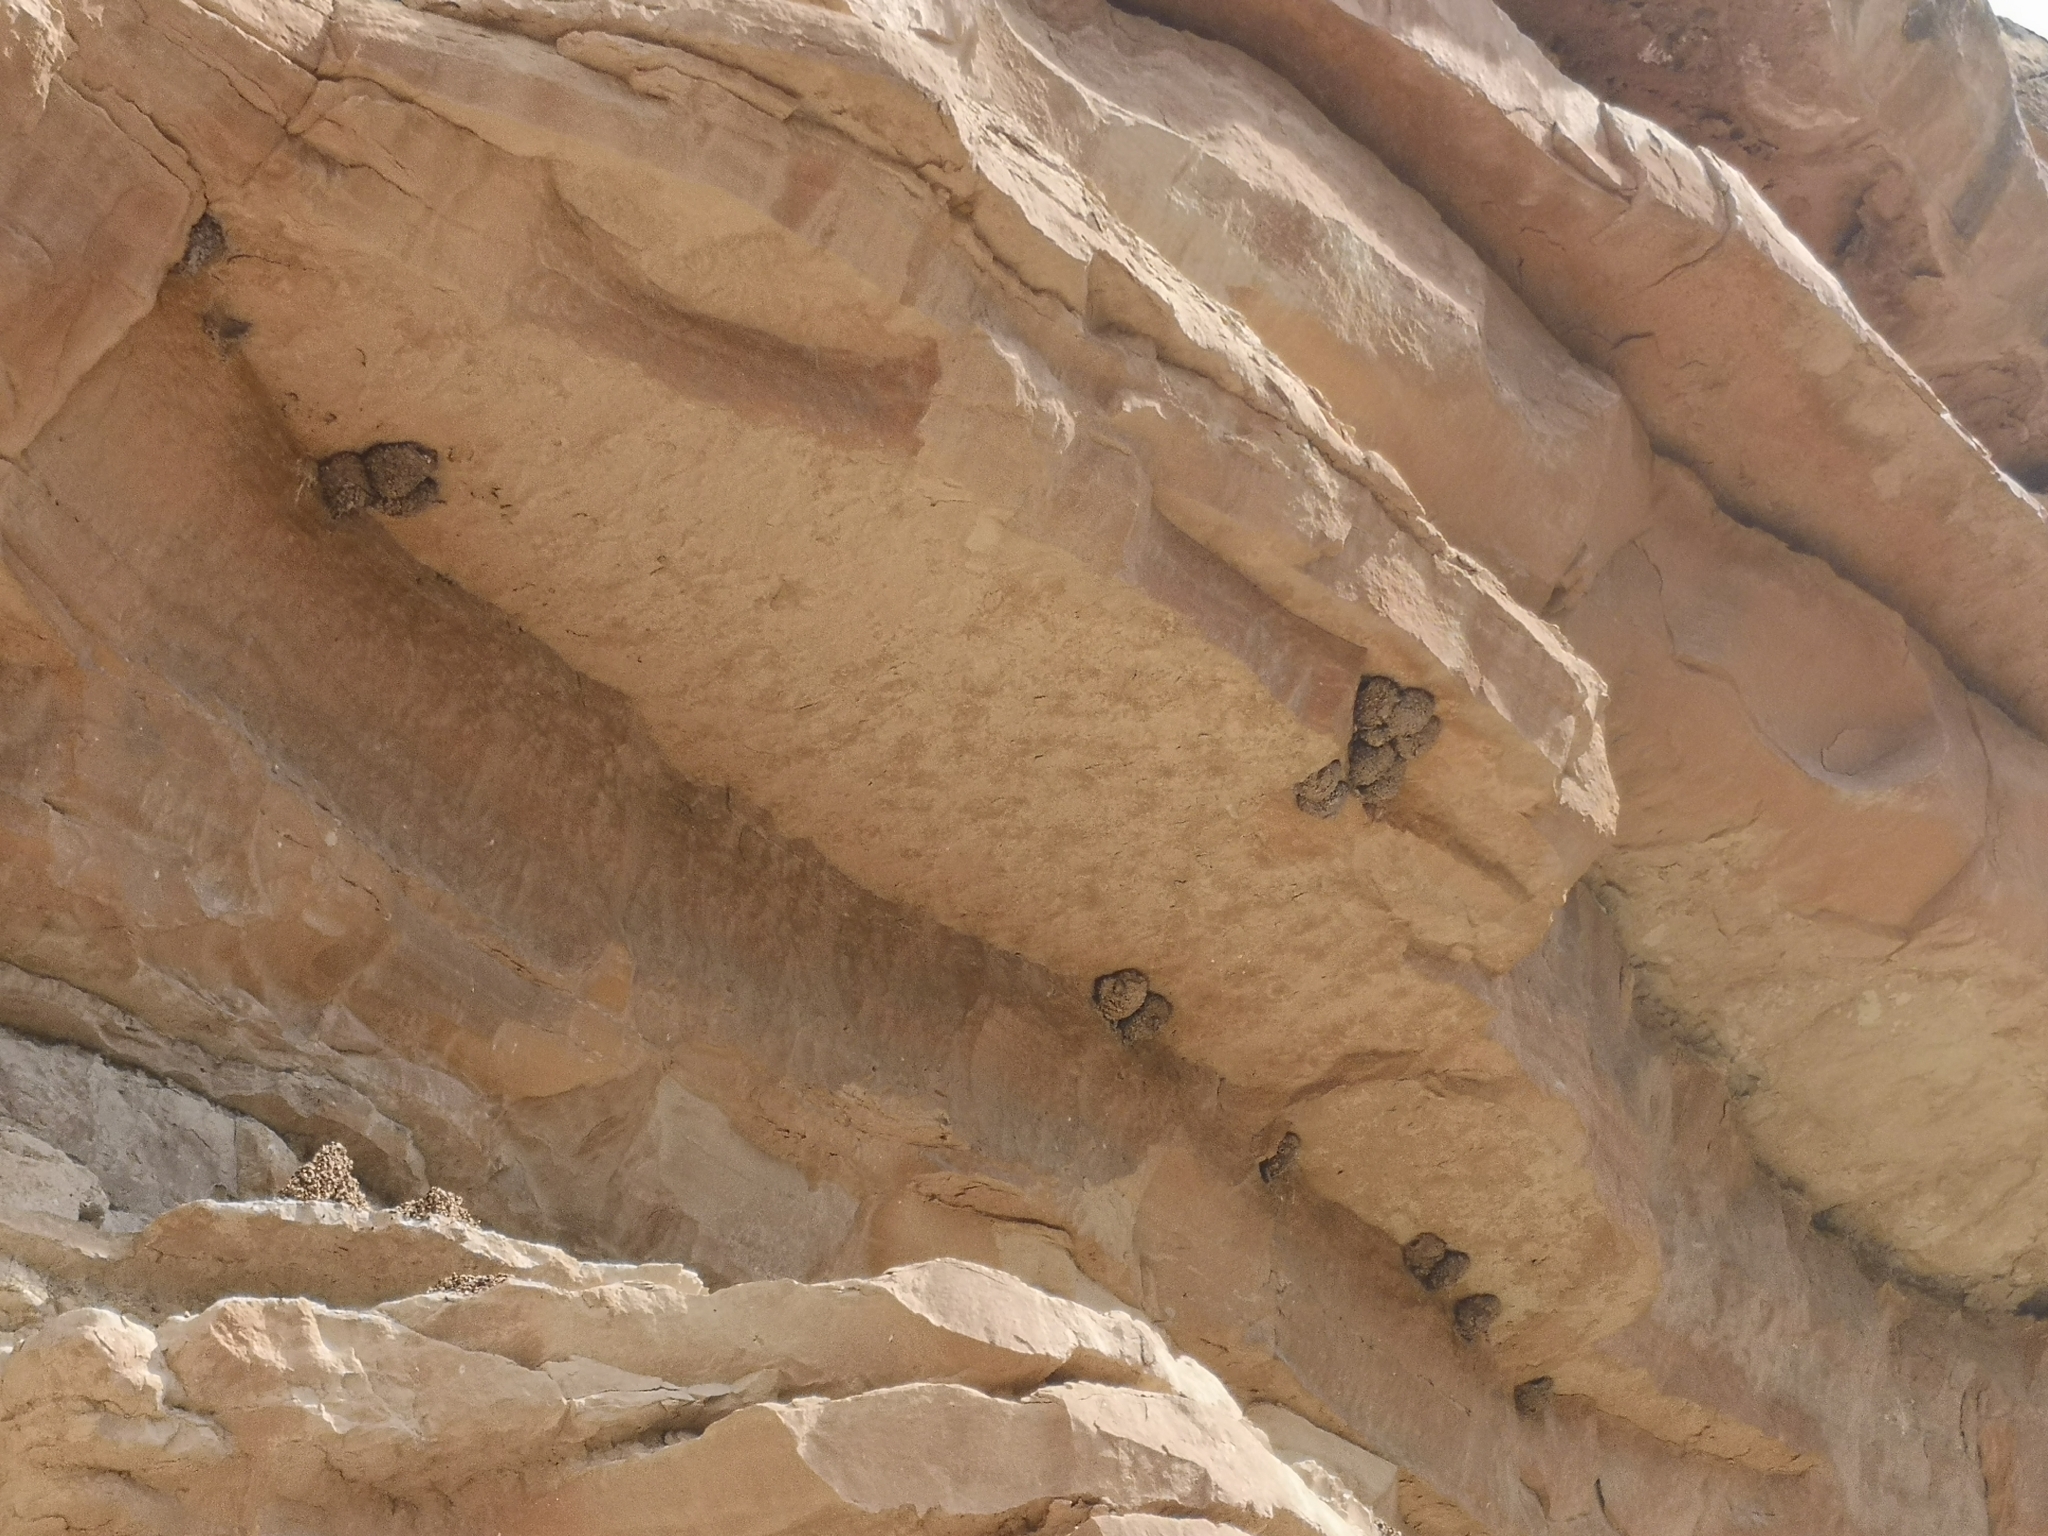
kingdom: Animalia
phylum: Chordata
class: Aves
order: Passeriformes
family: Hirundinidae
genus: Delichon
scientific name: Delichon urbicum
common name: Common house martin
